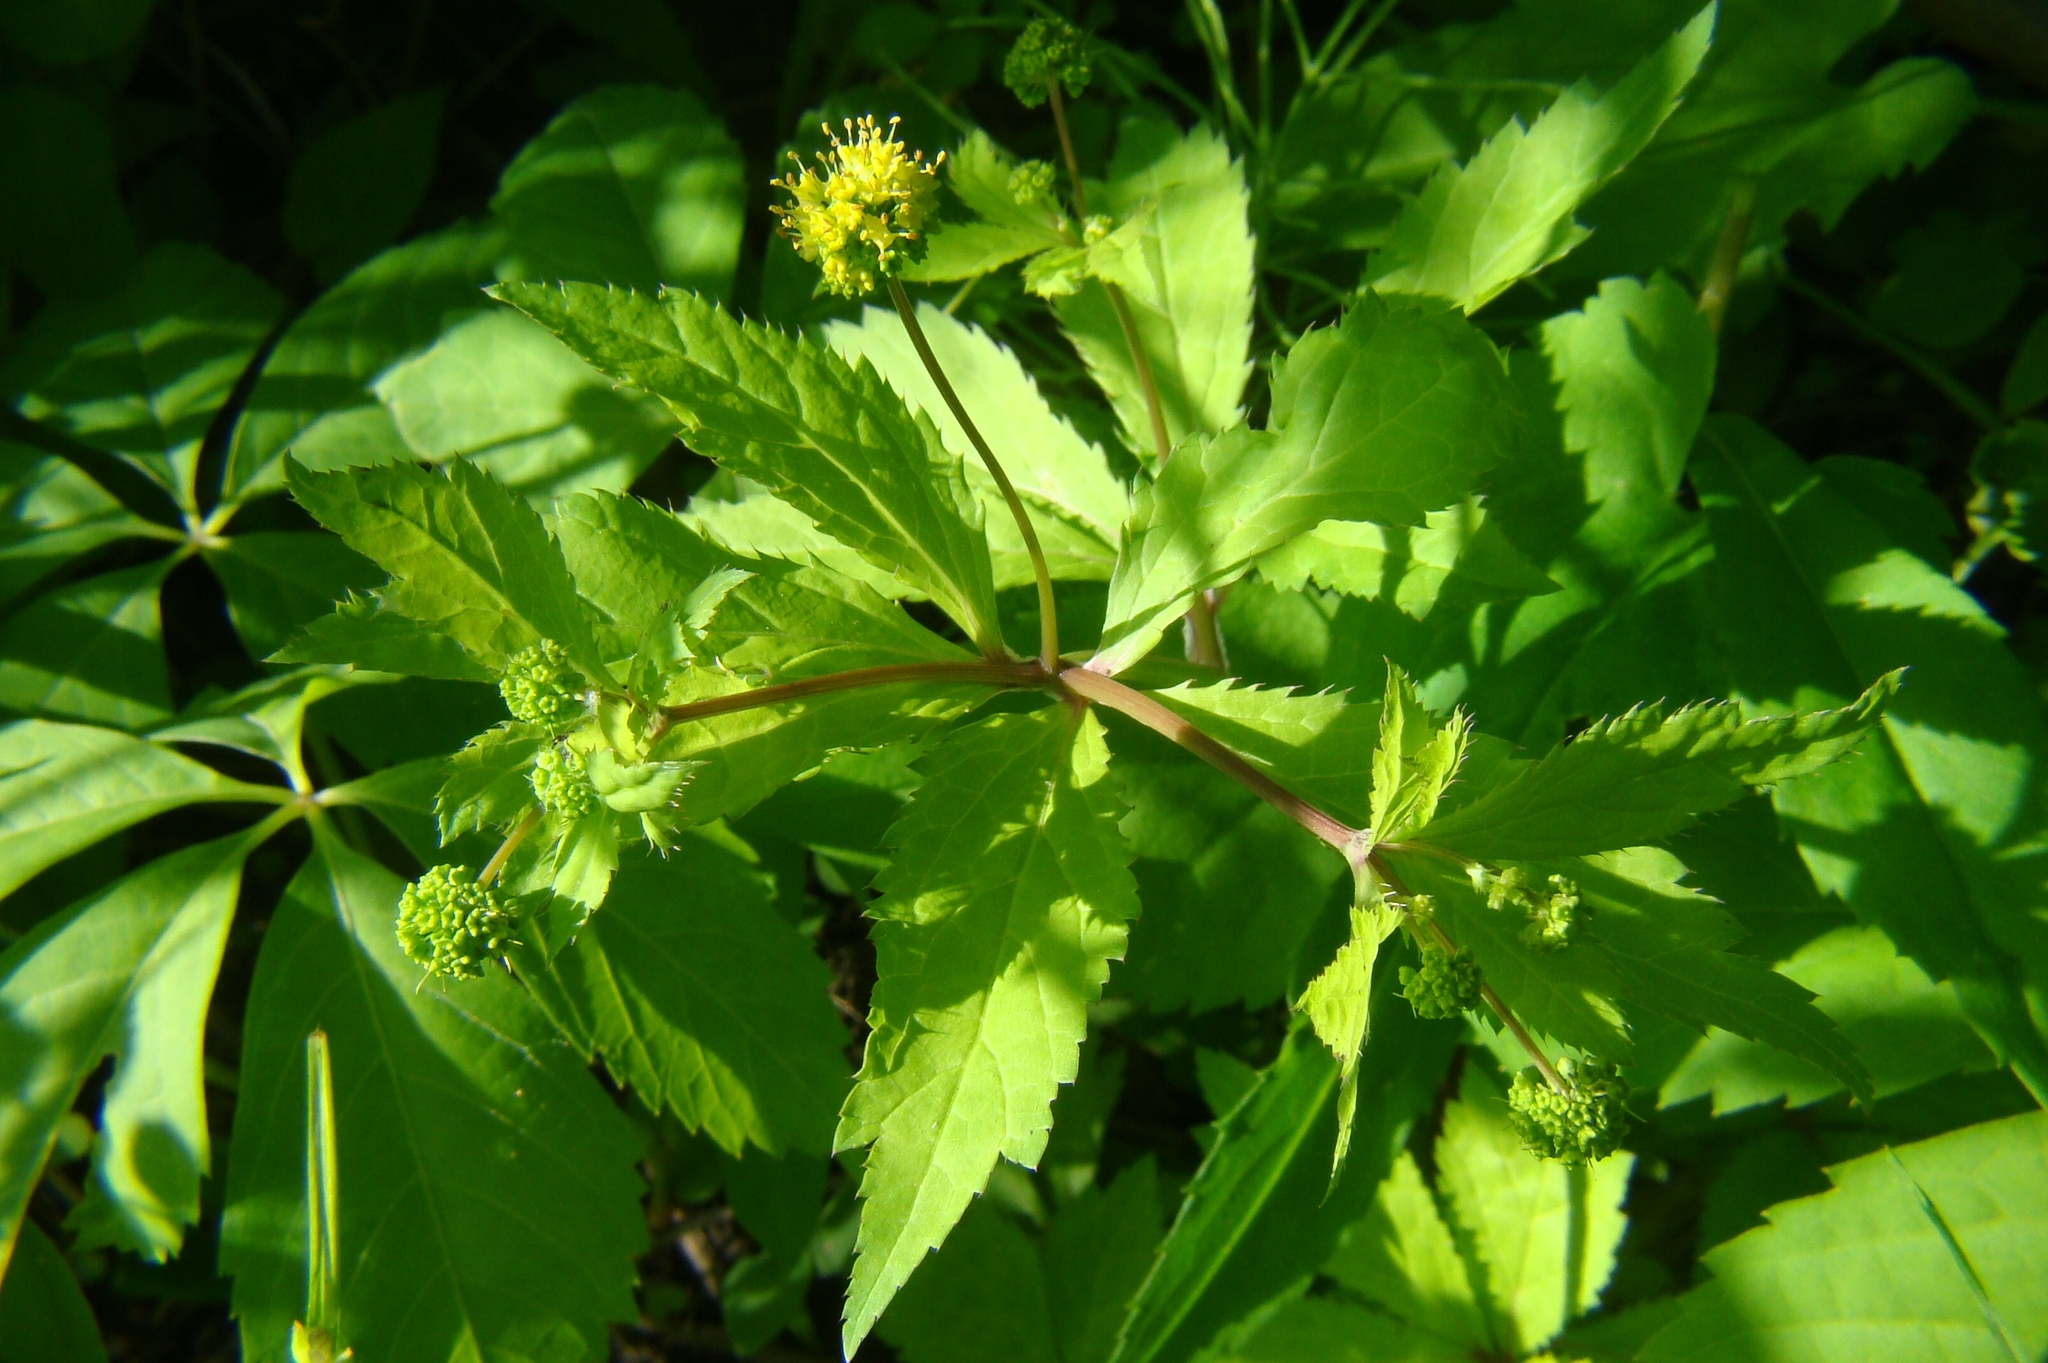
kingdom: Plantae
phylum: Tracheophyta
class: Magnoliopsida
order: Apiales
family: Apiaceae
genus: Sanicula
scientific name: Sanicula odorata
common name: Cluster sanicle
